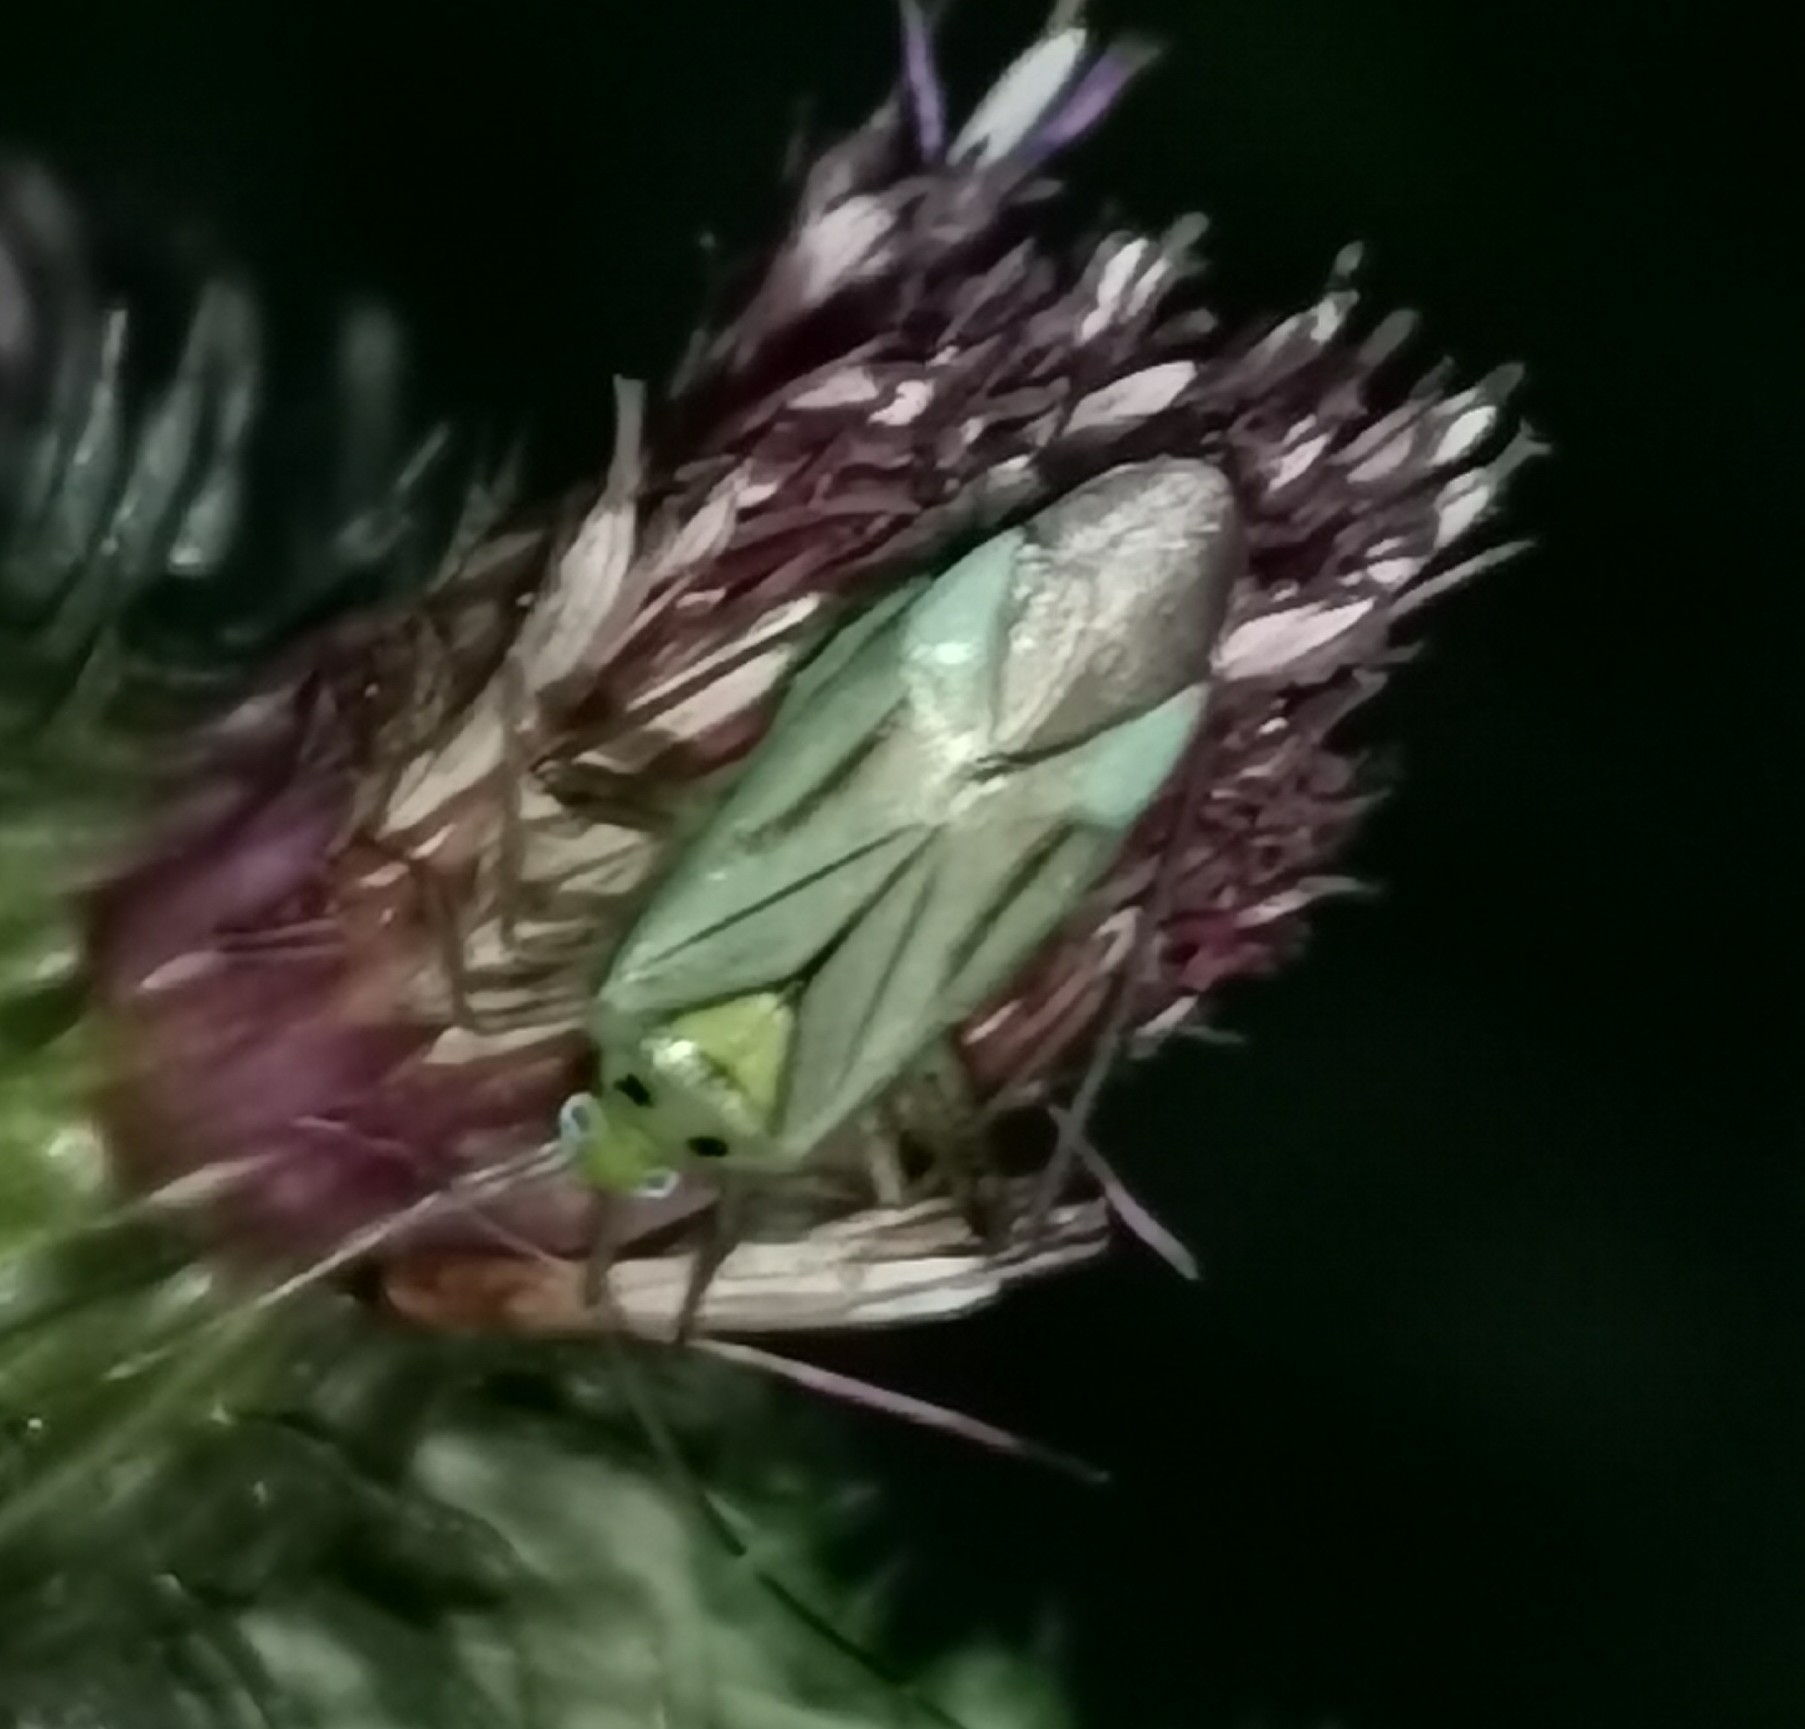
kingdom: Animalia
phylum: Arthropoda
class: Insecta
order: Hemiptera
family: Miridae
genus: Adelphocoris
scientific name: Adelphocoris quadripunctatus
